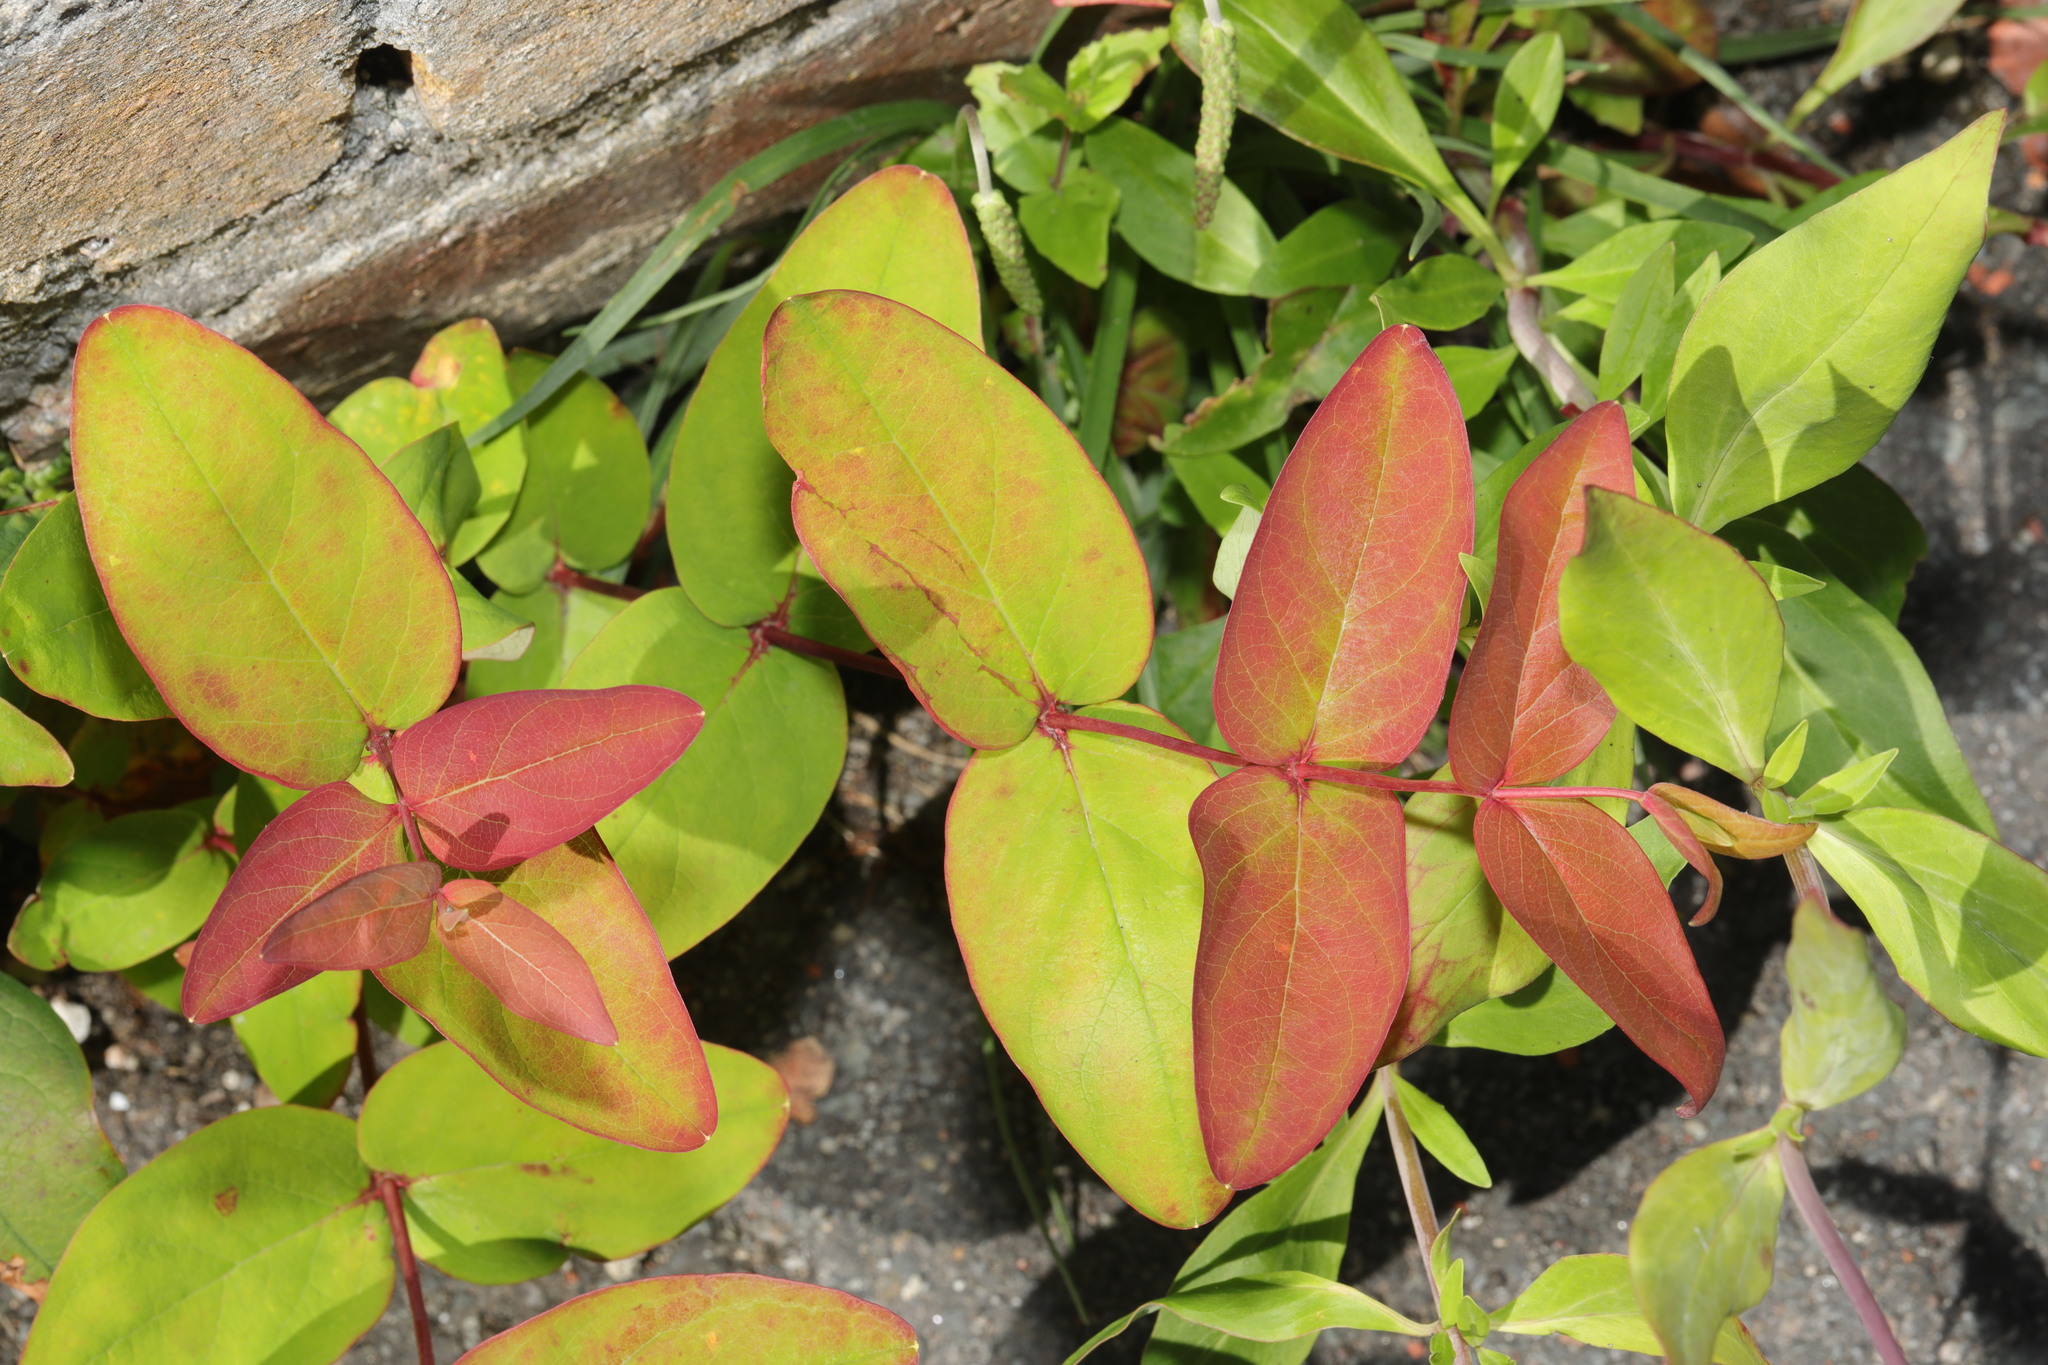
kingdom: Plantae
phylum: Tracheophyta
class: Magnoliopsida
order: Malpighiales
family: Hypericaceae
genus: Hypericum
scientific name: Hypericum androsaemum
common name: Sweet-amber
